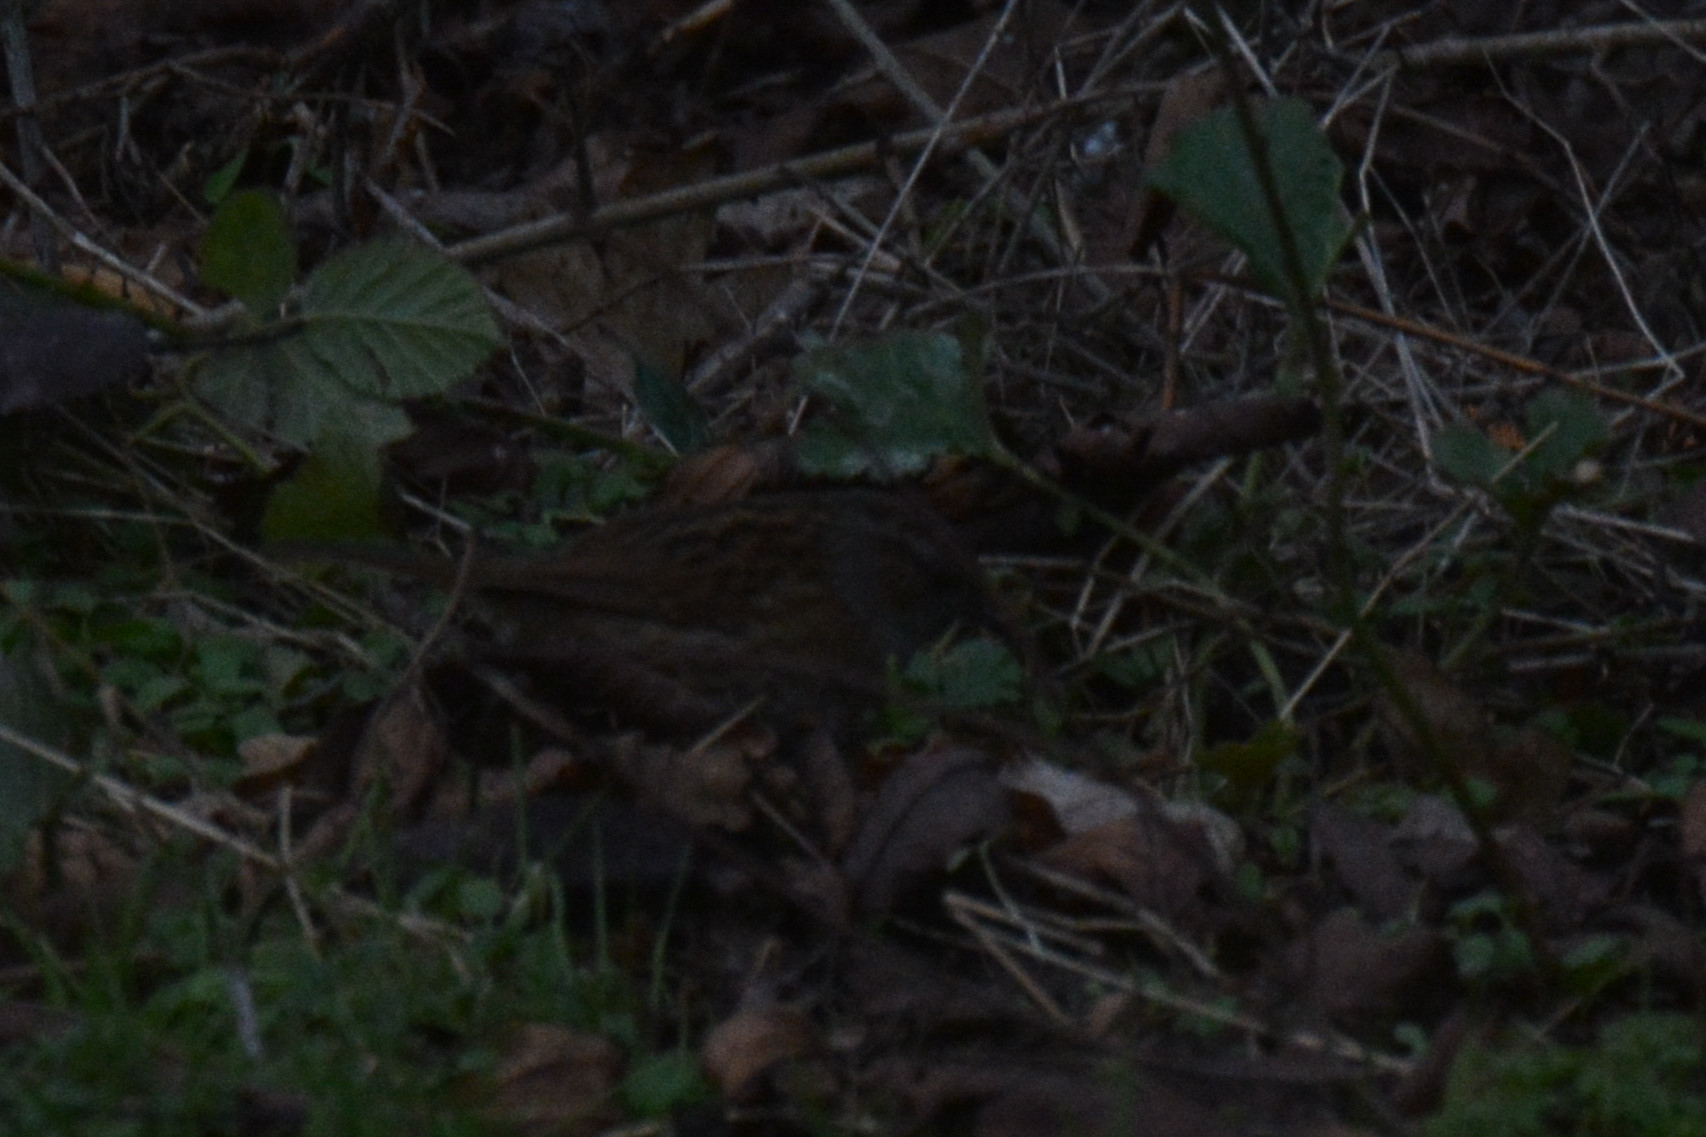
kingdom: Animalia
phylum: Chordata
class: Aves
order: Passeriformes
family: Prunellidae
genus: Prunella
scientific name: Prunella modularis
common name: Dunnock
